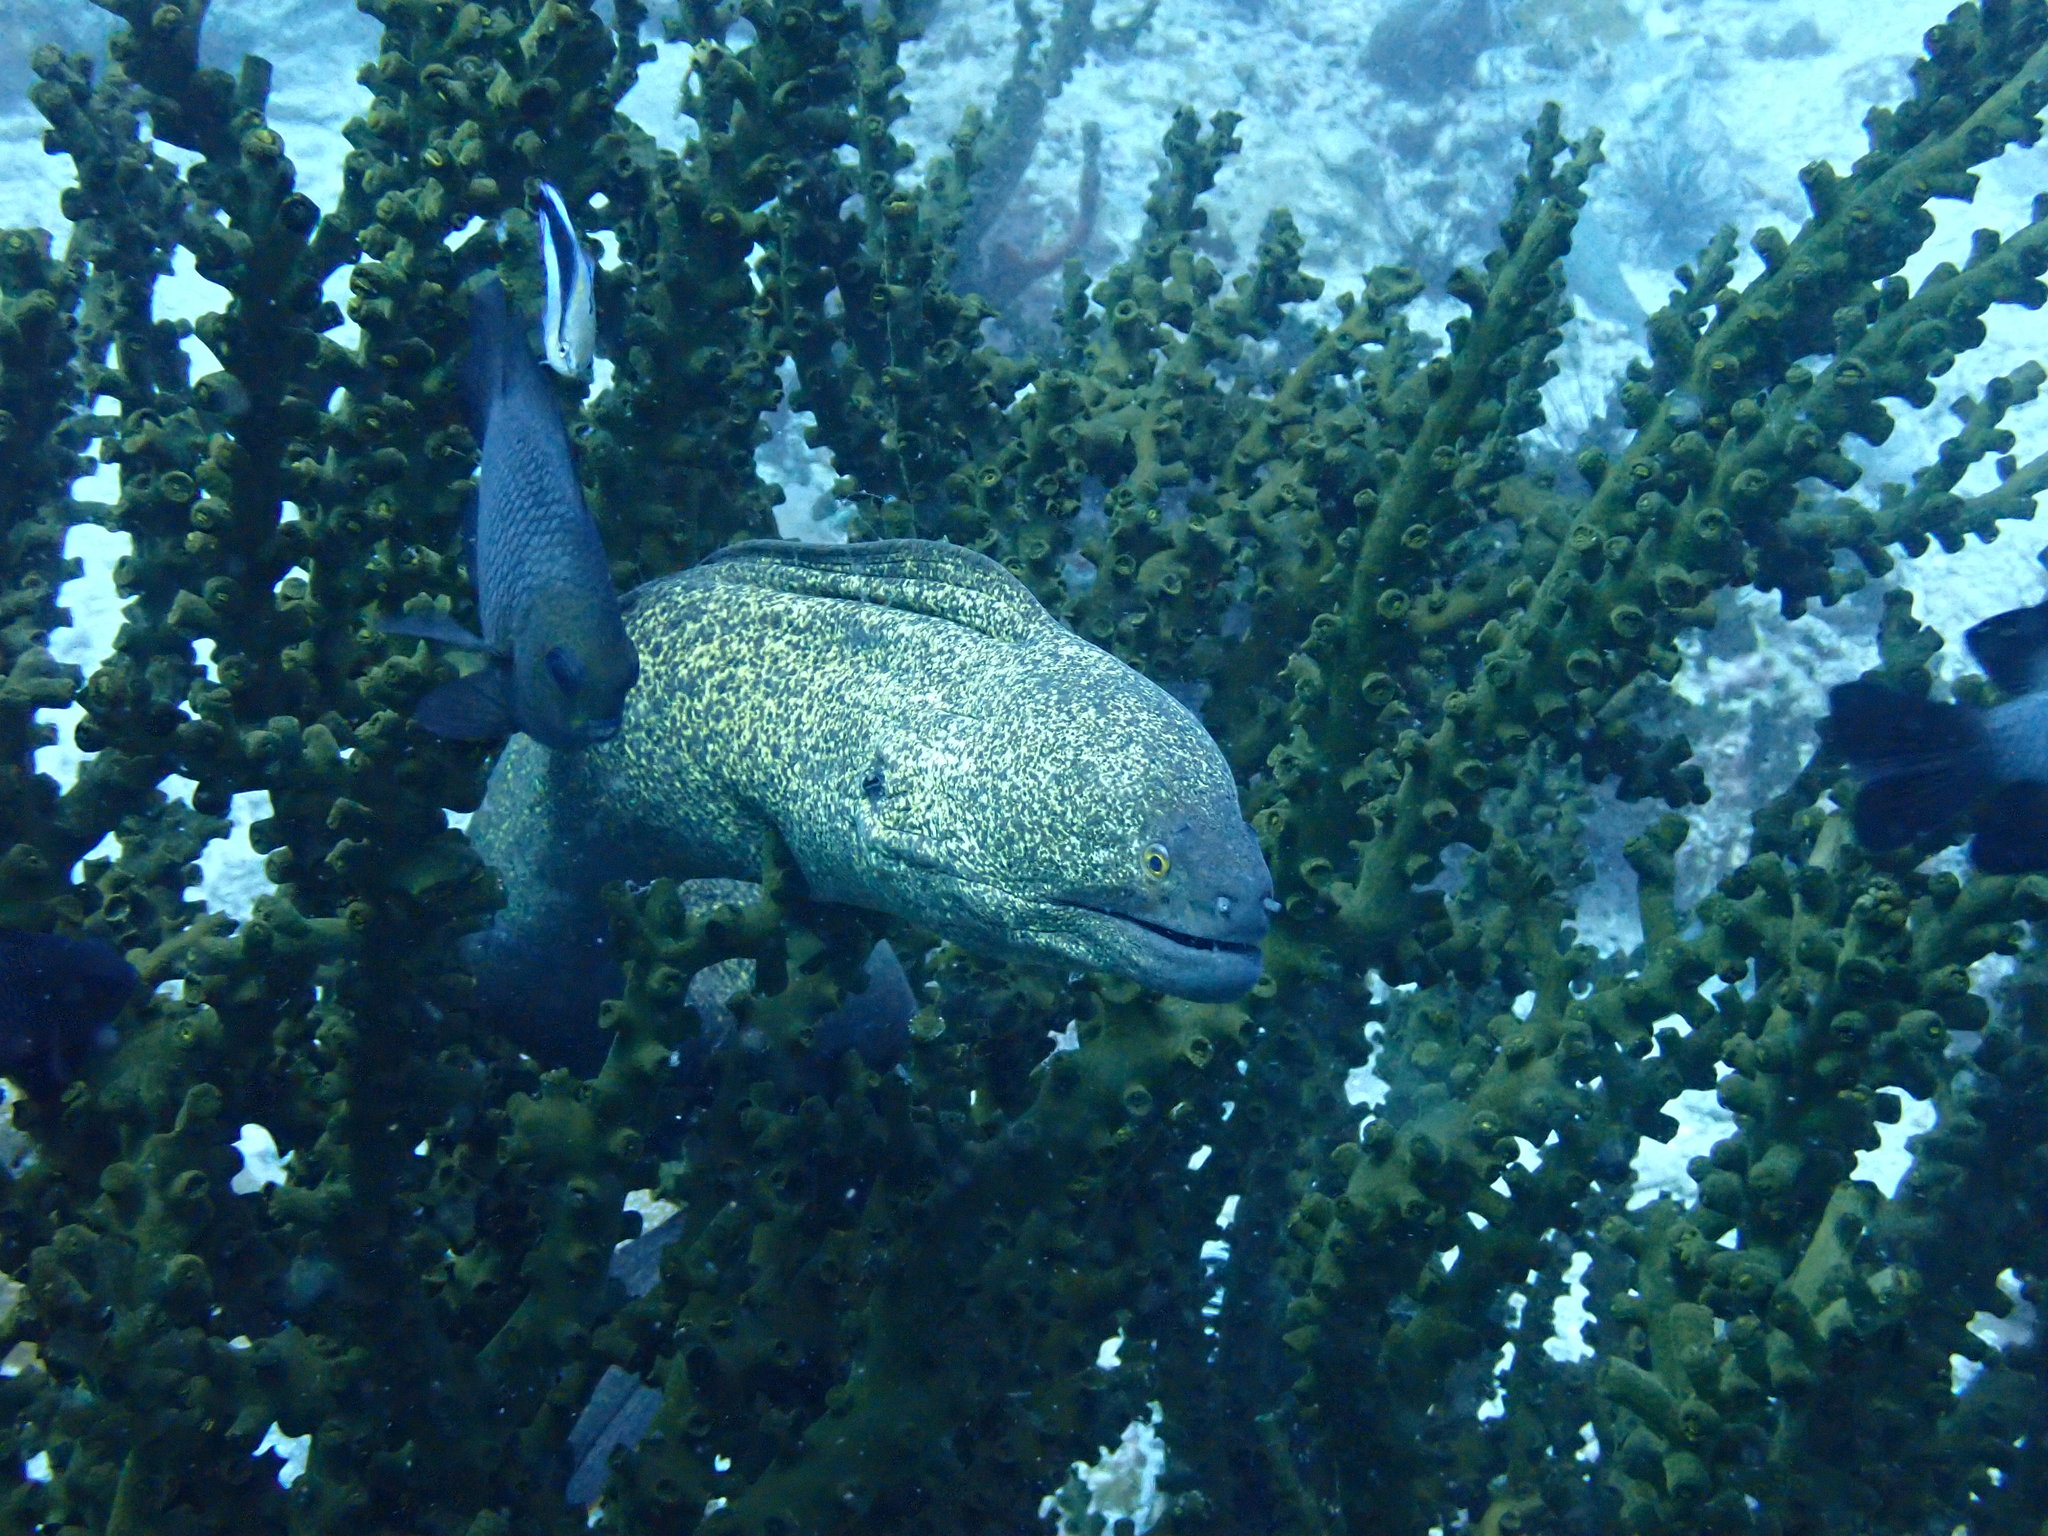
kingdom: Animalia
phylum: Chordata
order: Anguilliformes
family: Muraenidae
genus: Gymnothorax
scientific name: Gymnothorax flavimarginatus
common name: Yellow-edged moray
